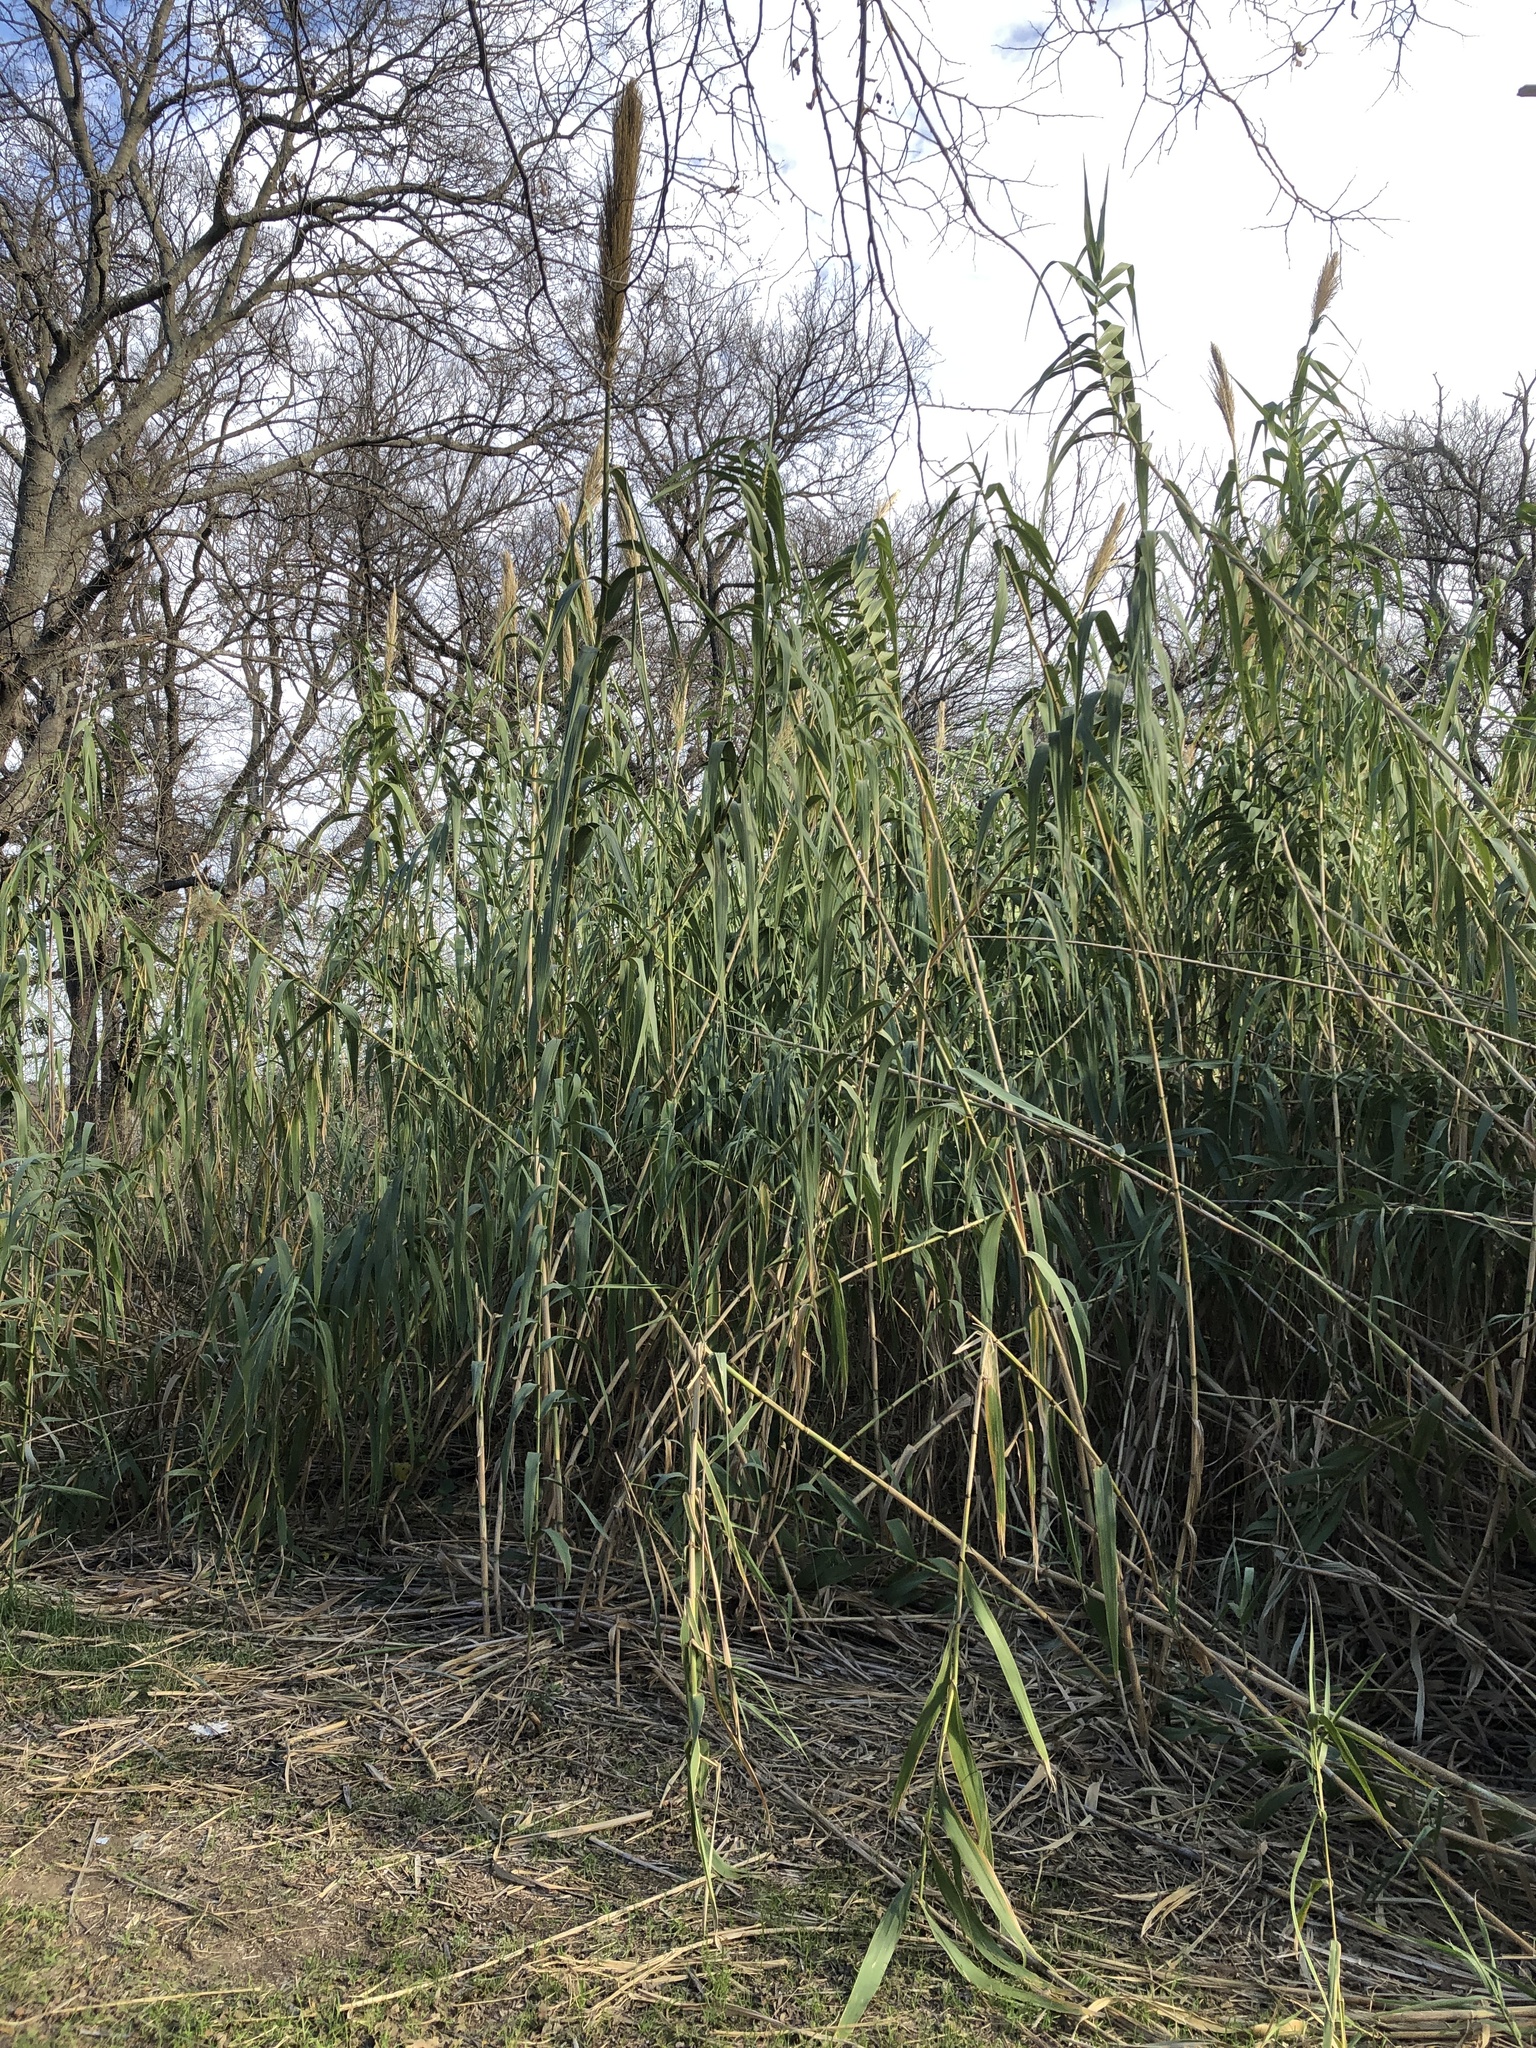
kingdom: Plantae
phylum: Tracheophyta
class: Liliopsida
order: Poales
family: Poaceae
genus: Arundo
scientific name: Arundo donax
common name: Giant reed
